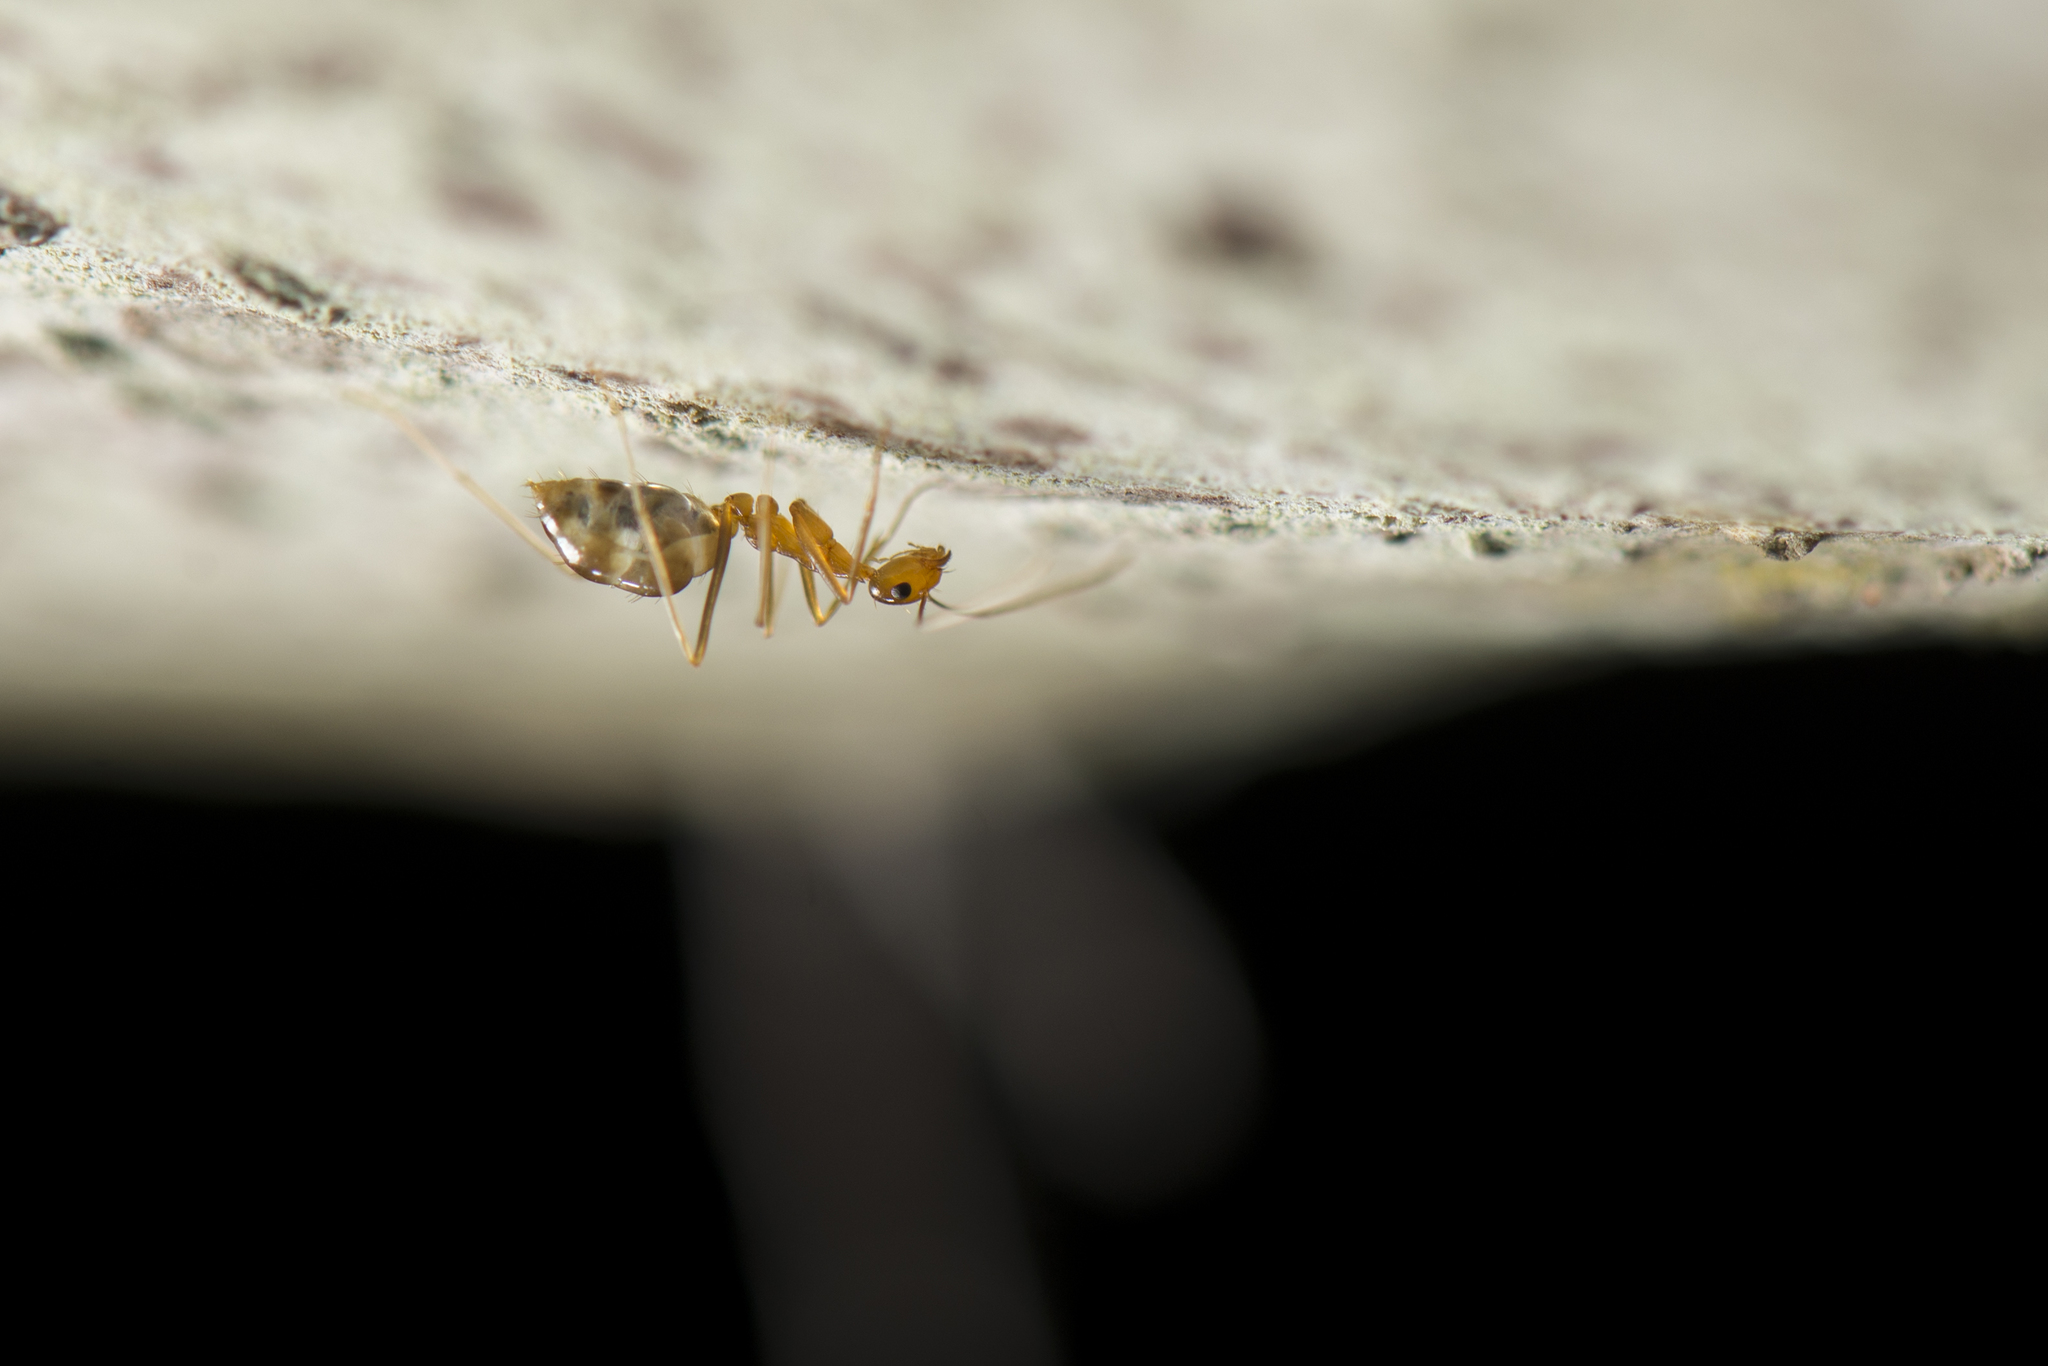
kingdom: Animalia
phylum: Arthropoda
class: Insecta
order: Hymenoptera
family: Formicidae
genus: Anoplolepis
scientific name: Anoplolepis gracilipes
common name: Ant
